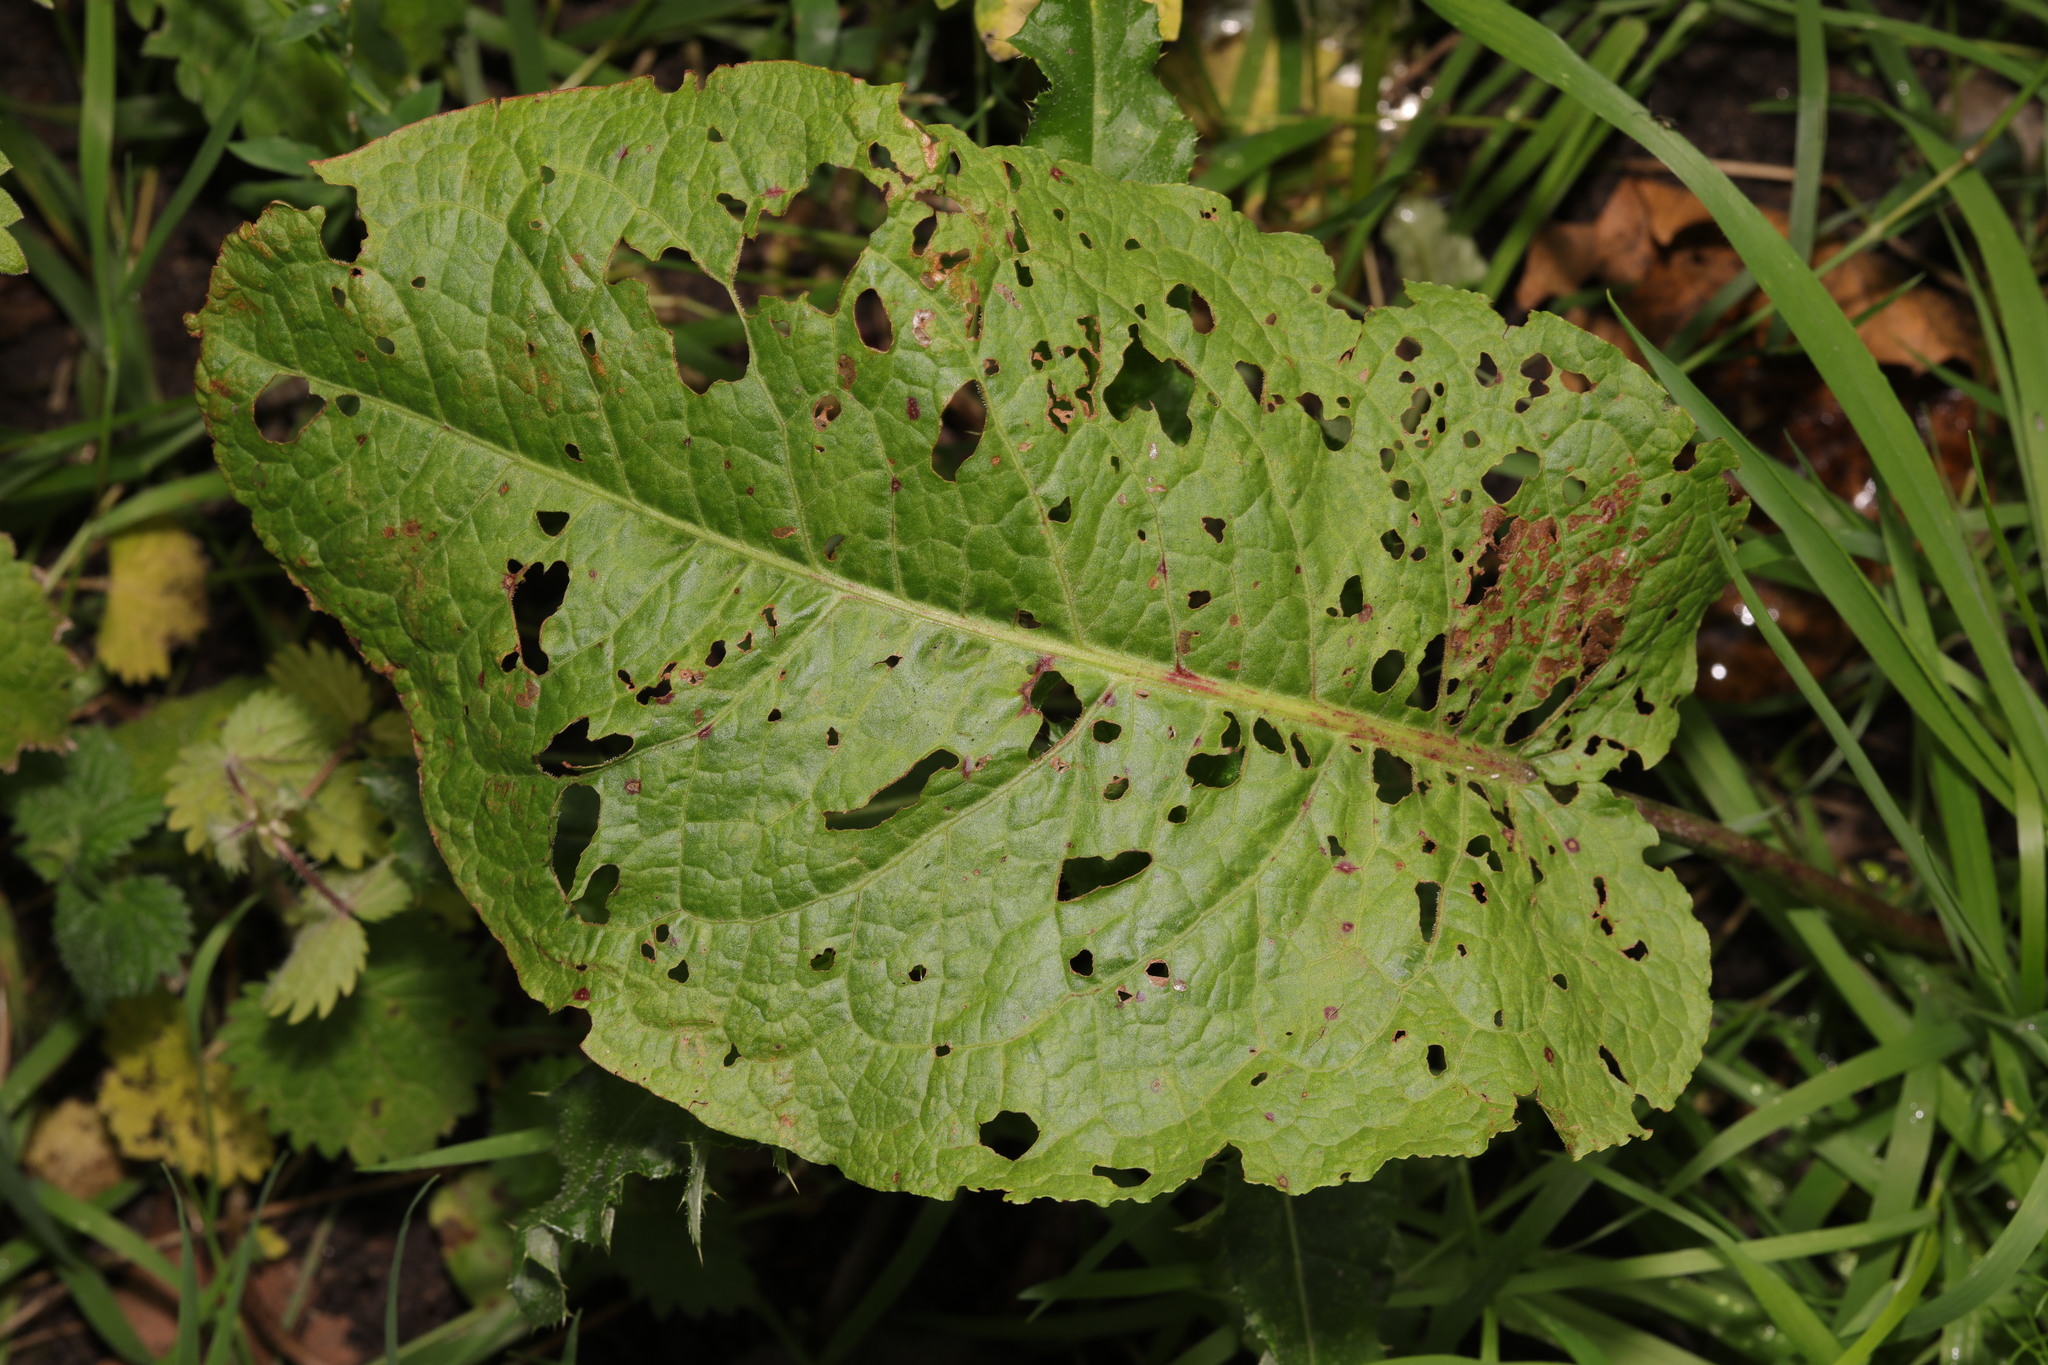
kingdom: Plantae
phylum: Tracheophyta
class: Magnoliopsida
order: Caryophyllales
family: Polygonaceae
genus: Rumex
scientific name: Rumex obtusifolius
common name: Bitter dock
